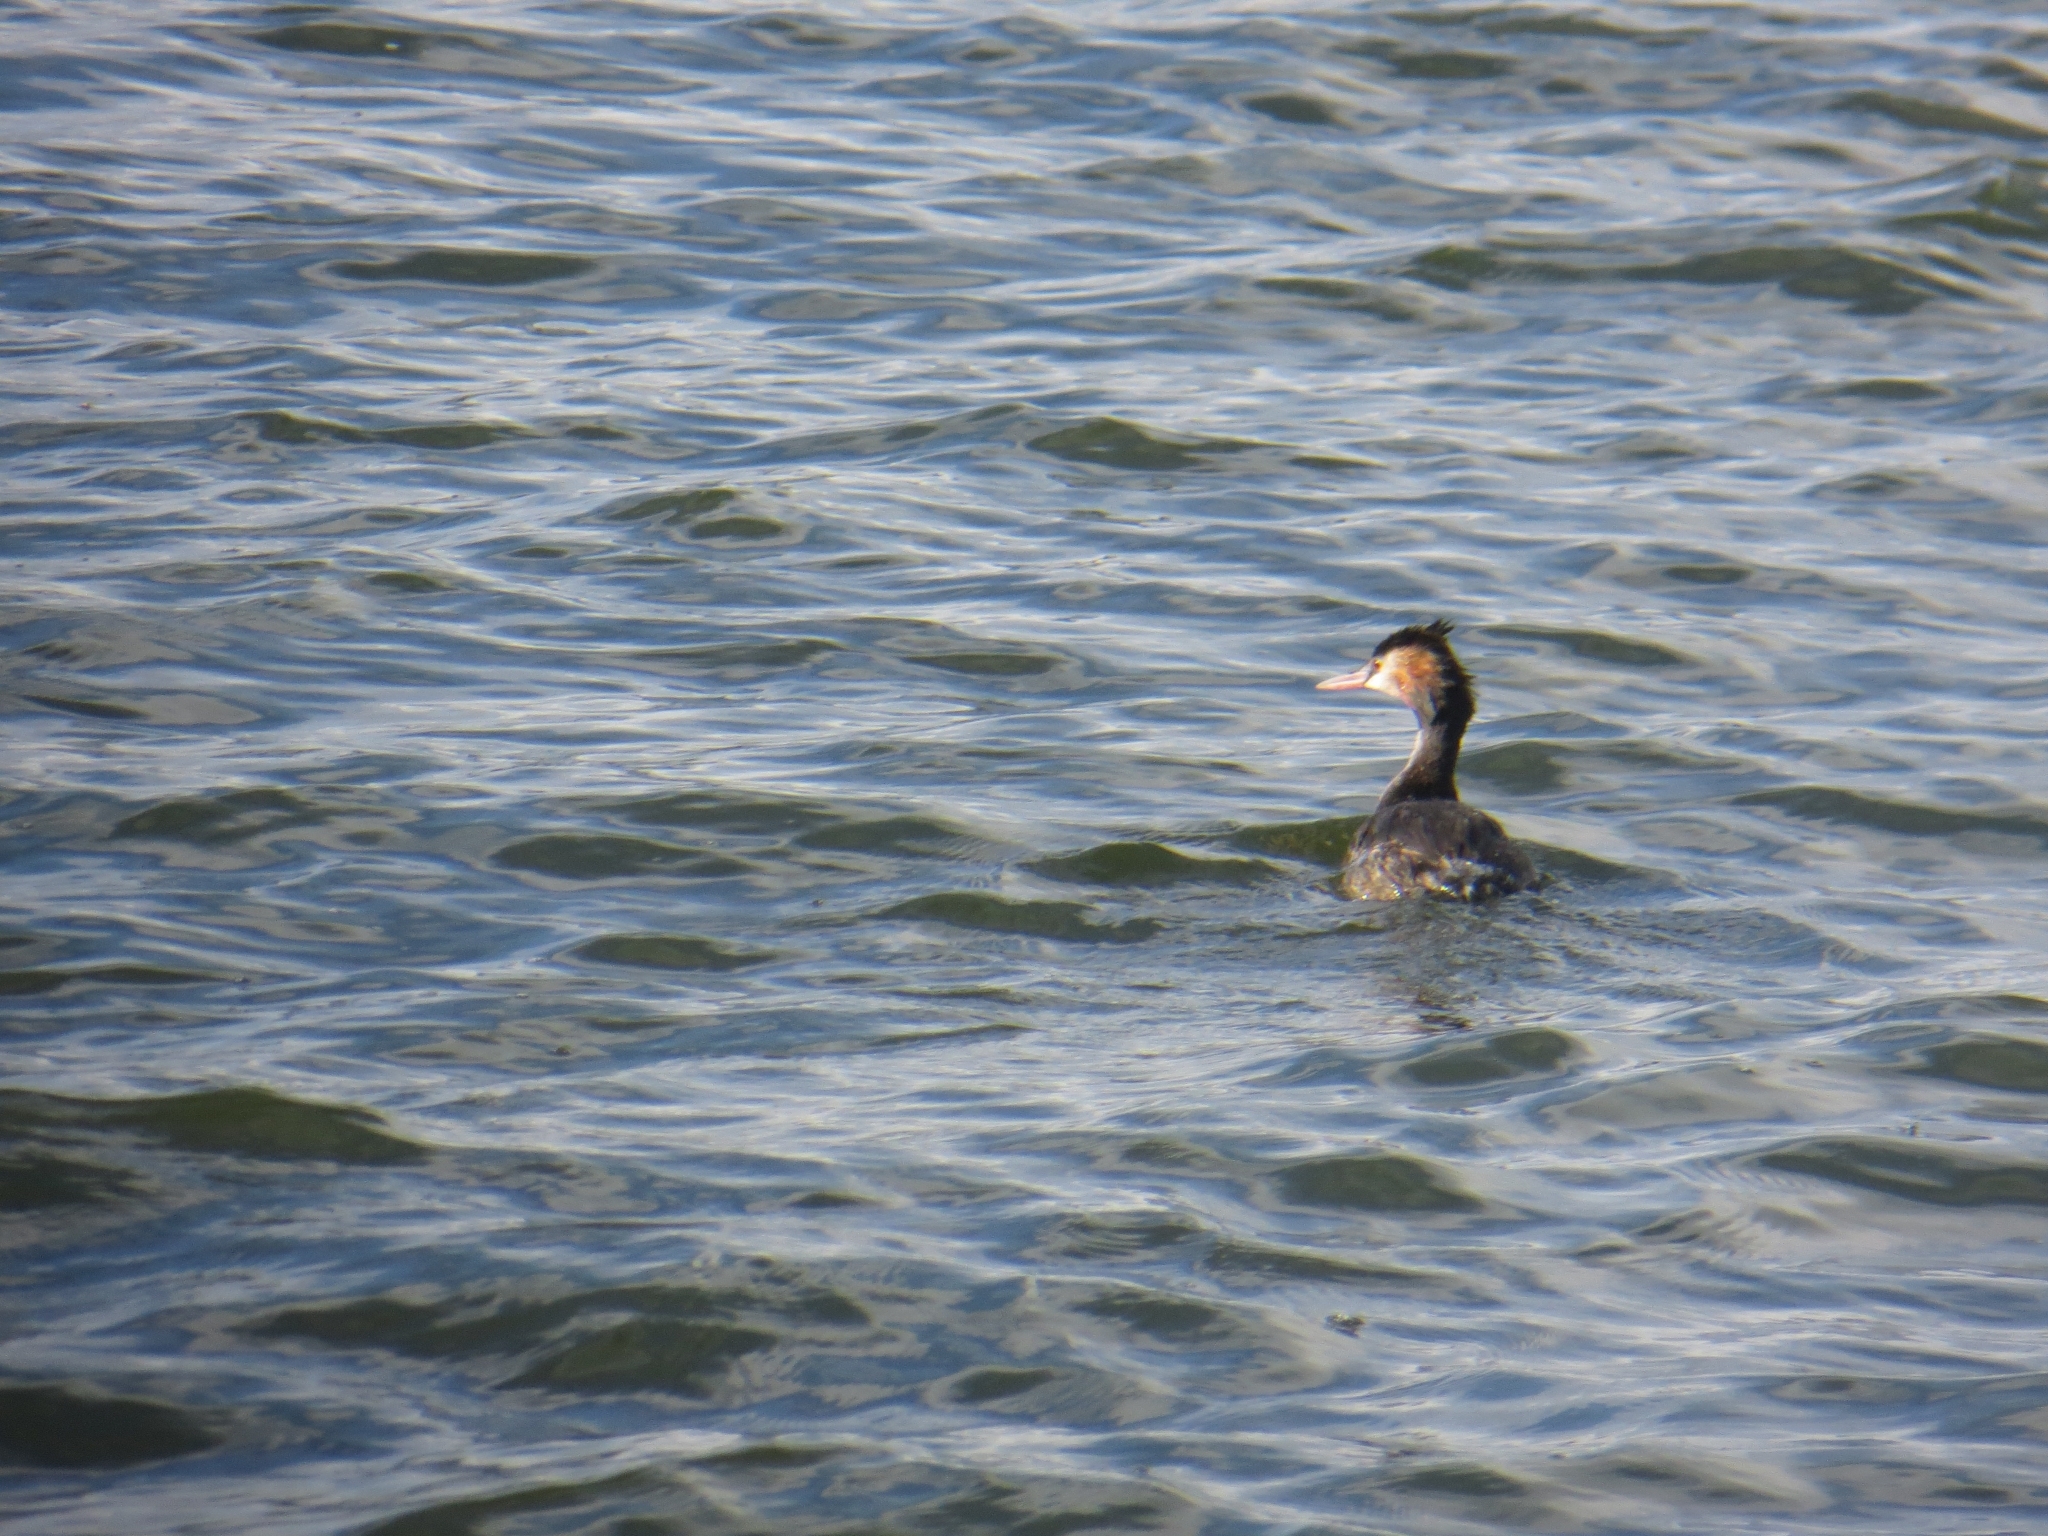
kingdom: Animalia
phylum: Chordata
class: Aves
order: Podicipediformes
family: Podicipedidae
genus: Podiceps
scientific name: Podiceps cristatus
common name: Great crested grebe
